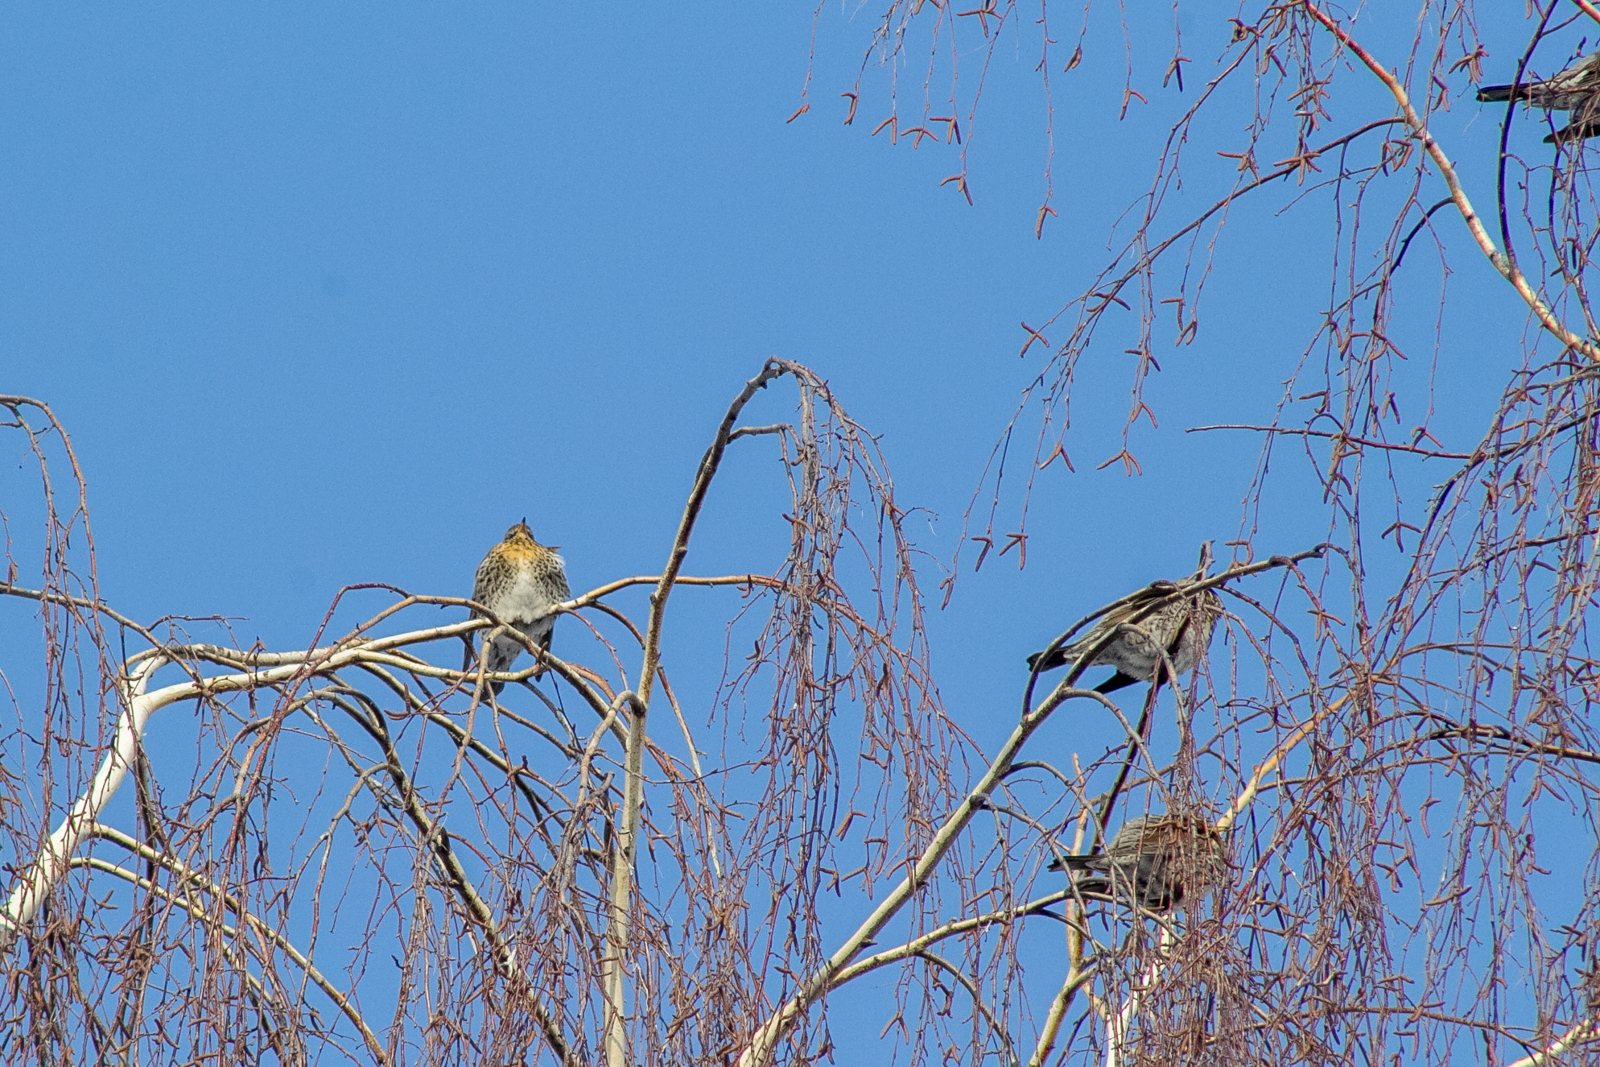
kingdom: Animalia
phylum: Chordata
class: Aves
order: Passeriformes
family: Turdidae
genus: Turdus
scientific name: Turdus pilaris
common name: Fieldfare
